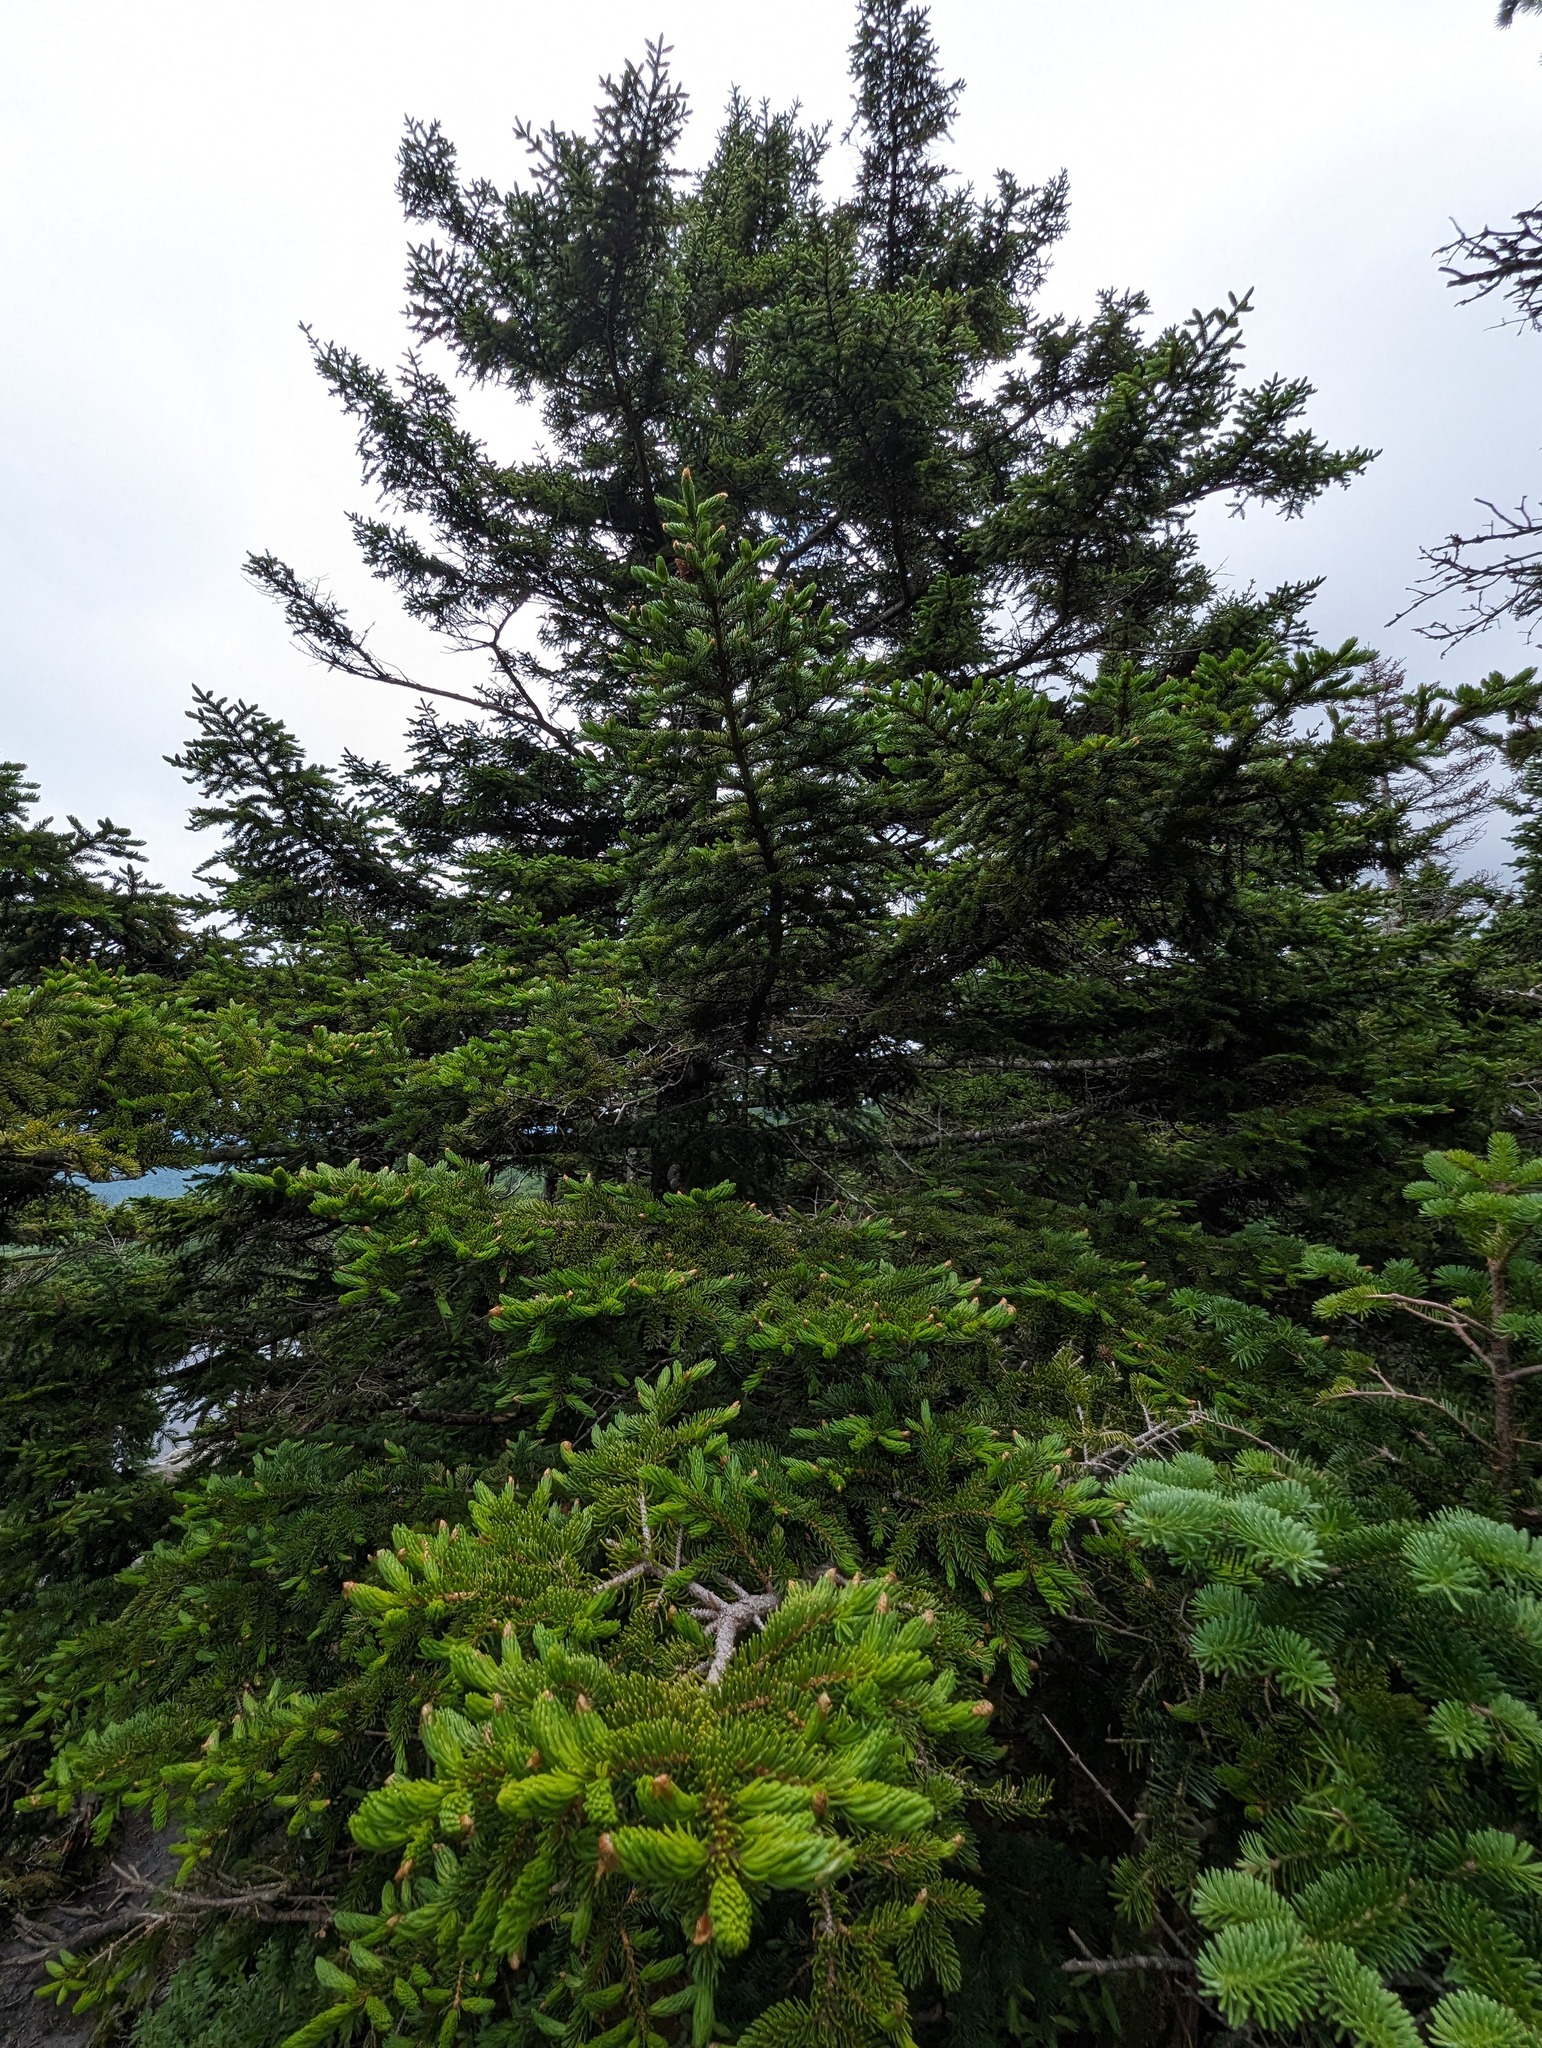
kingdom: Plantae
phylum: Tracheophyta
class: Pinopsida
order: Pinales
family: Pinaceae
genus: Picea
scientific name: Picea rubens
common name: Red spruce
